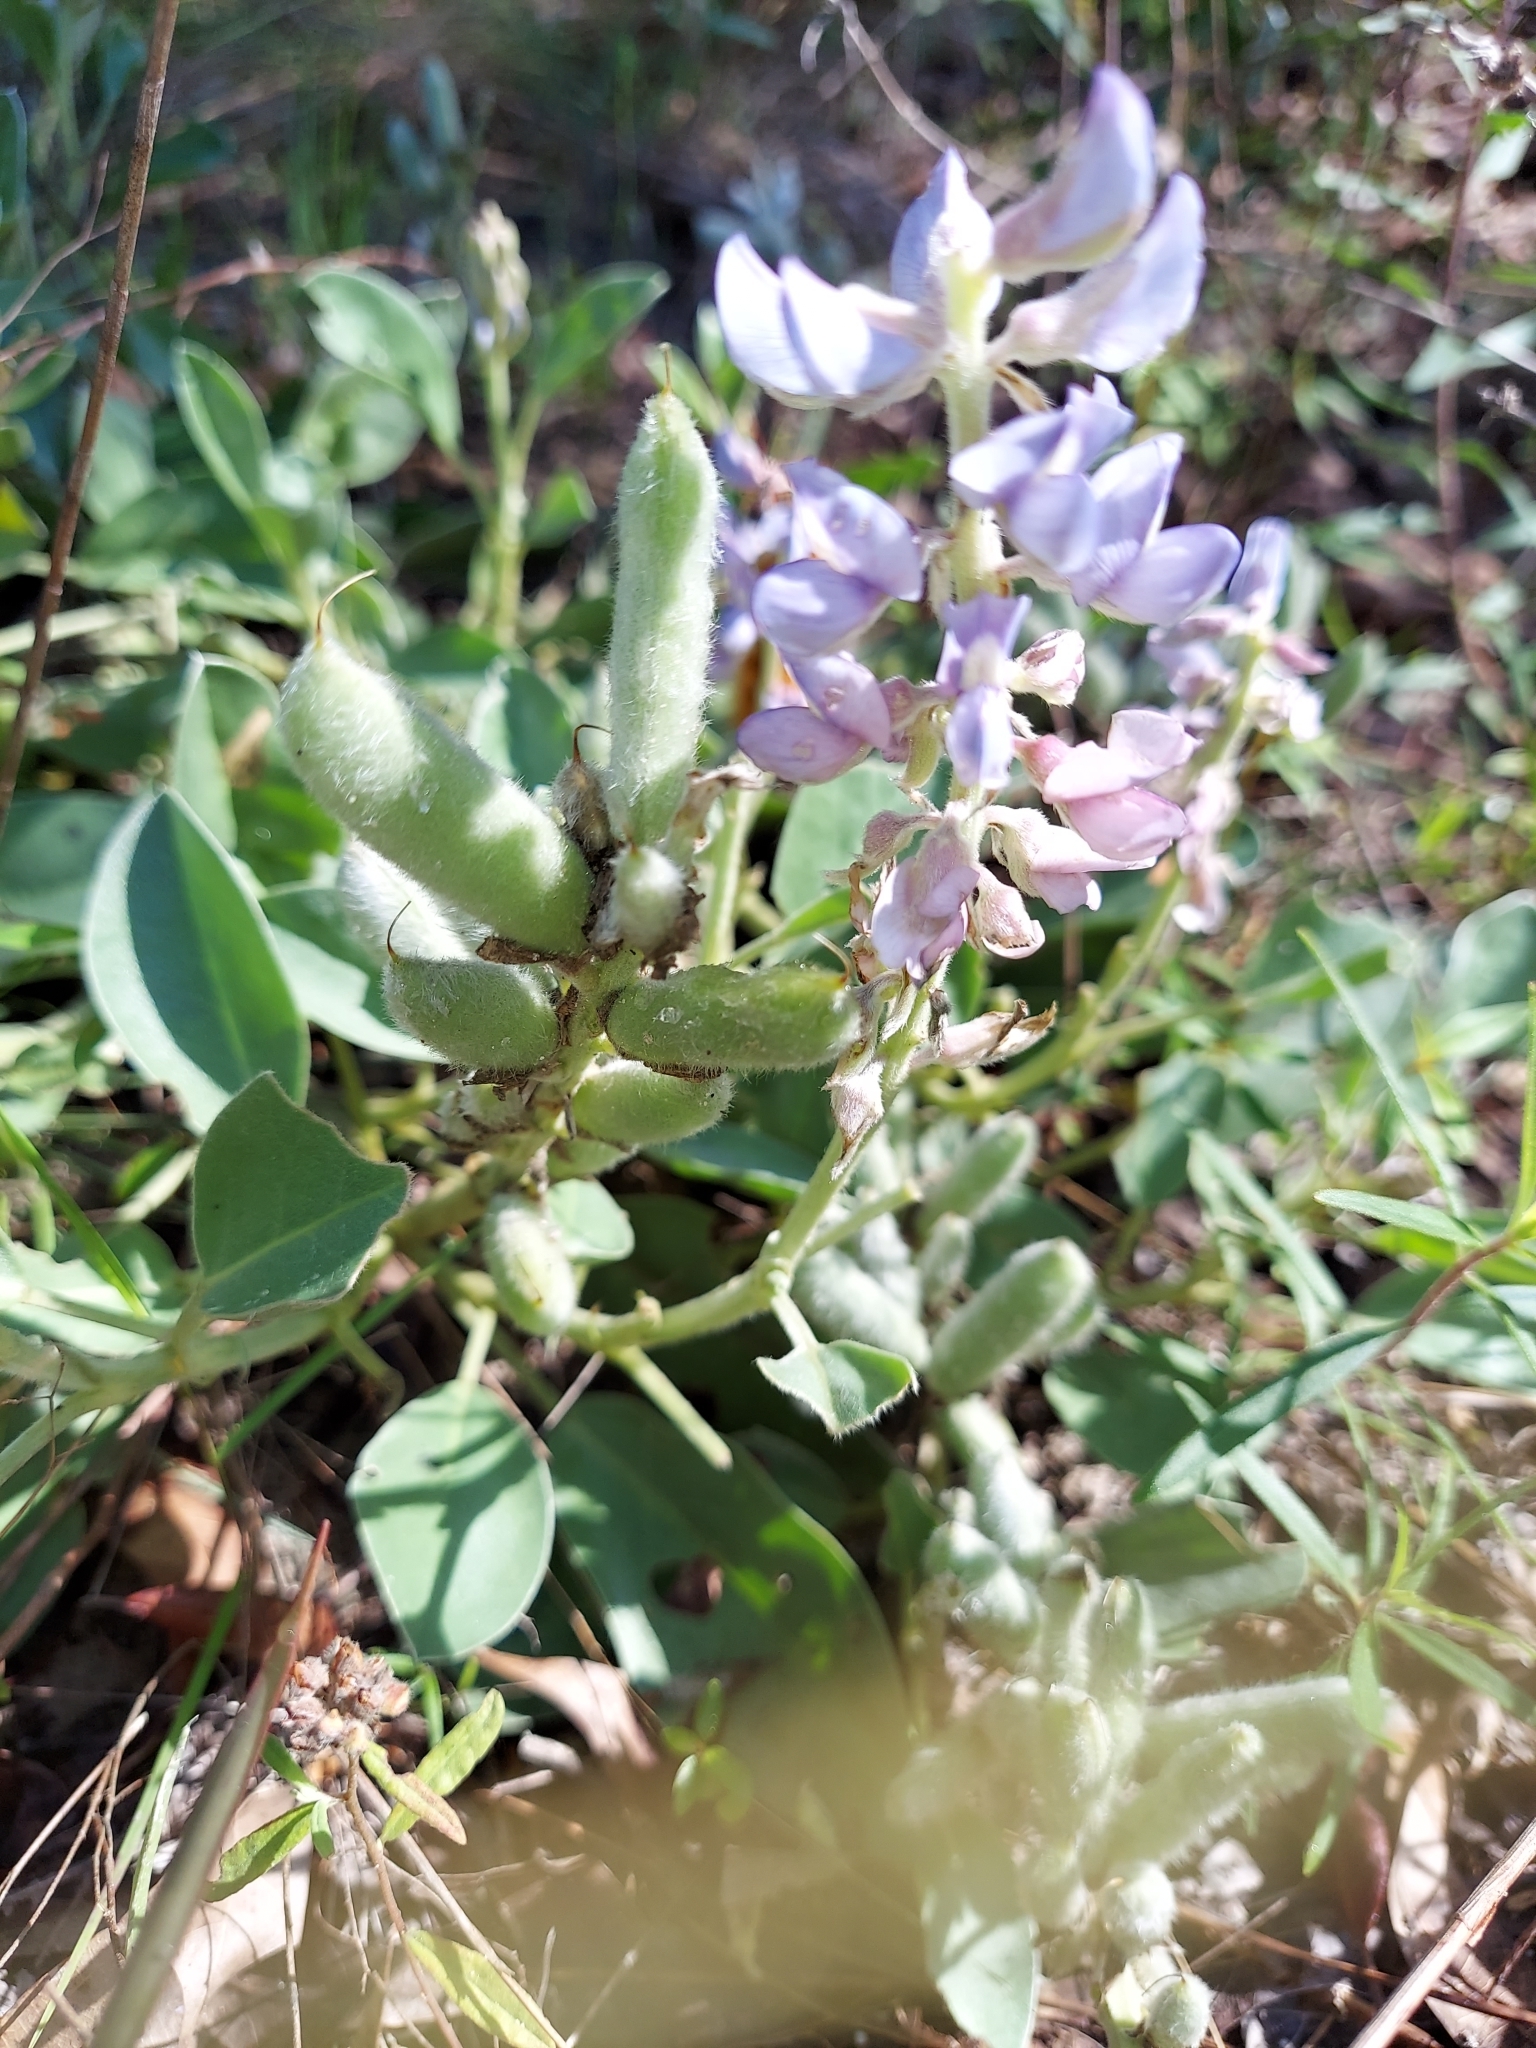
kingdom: Plantae
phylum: Tracheophyta
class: Magnoliopsida
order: Fabales
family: Fabaceae
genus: Lupinus
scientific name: Lupinus
